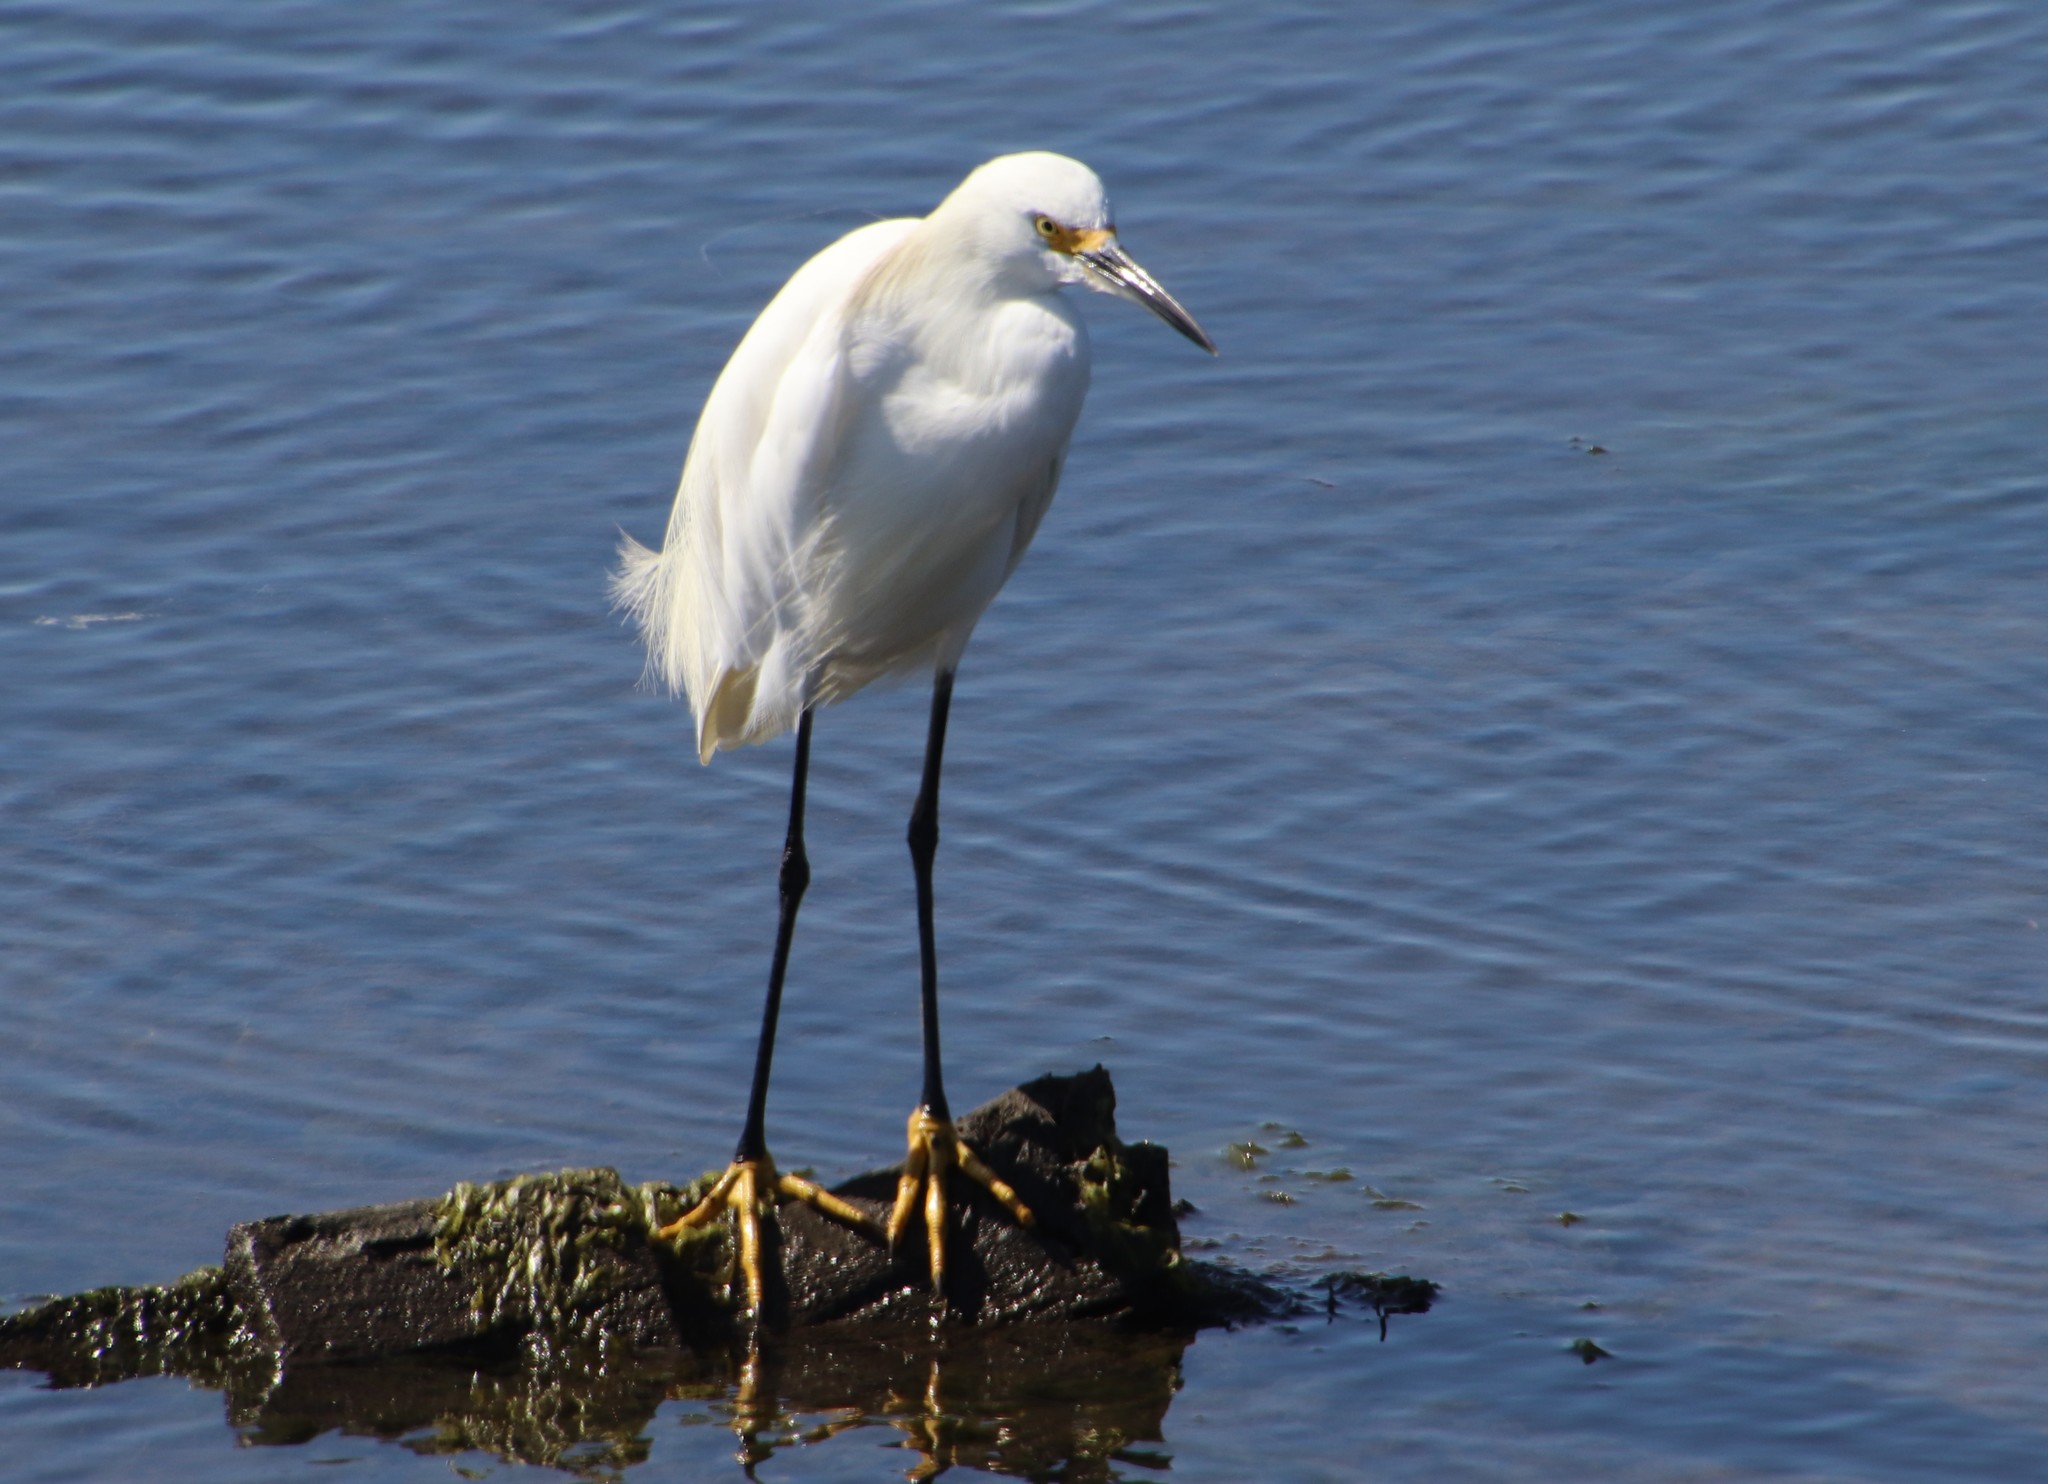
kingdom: Animalia
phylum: Chordata
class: Aves
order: Pelecaniformes
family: Ardeidae
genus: Egretta
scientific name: Egretta thula
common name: Snowy egret
